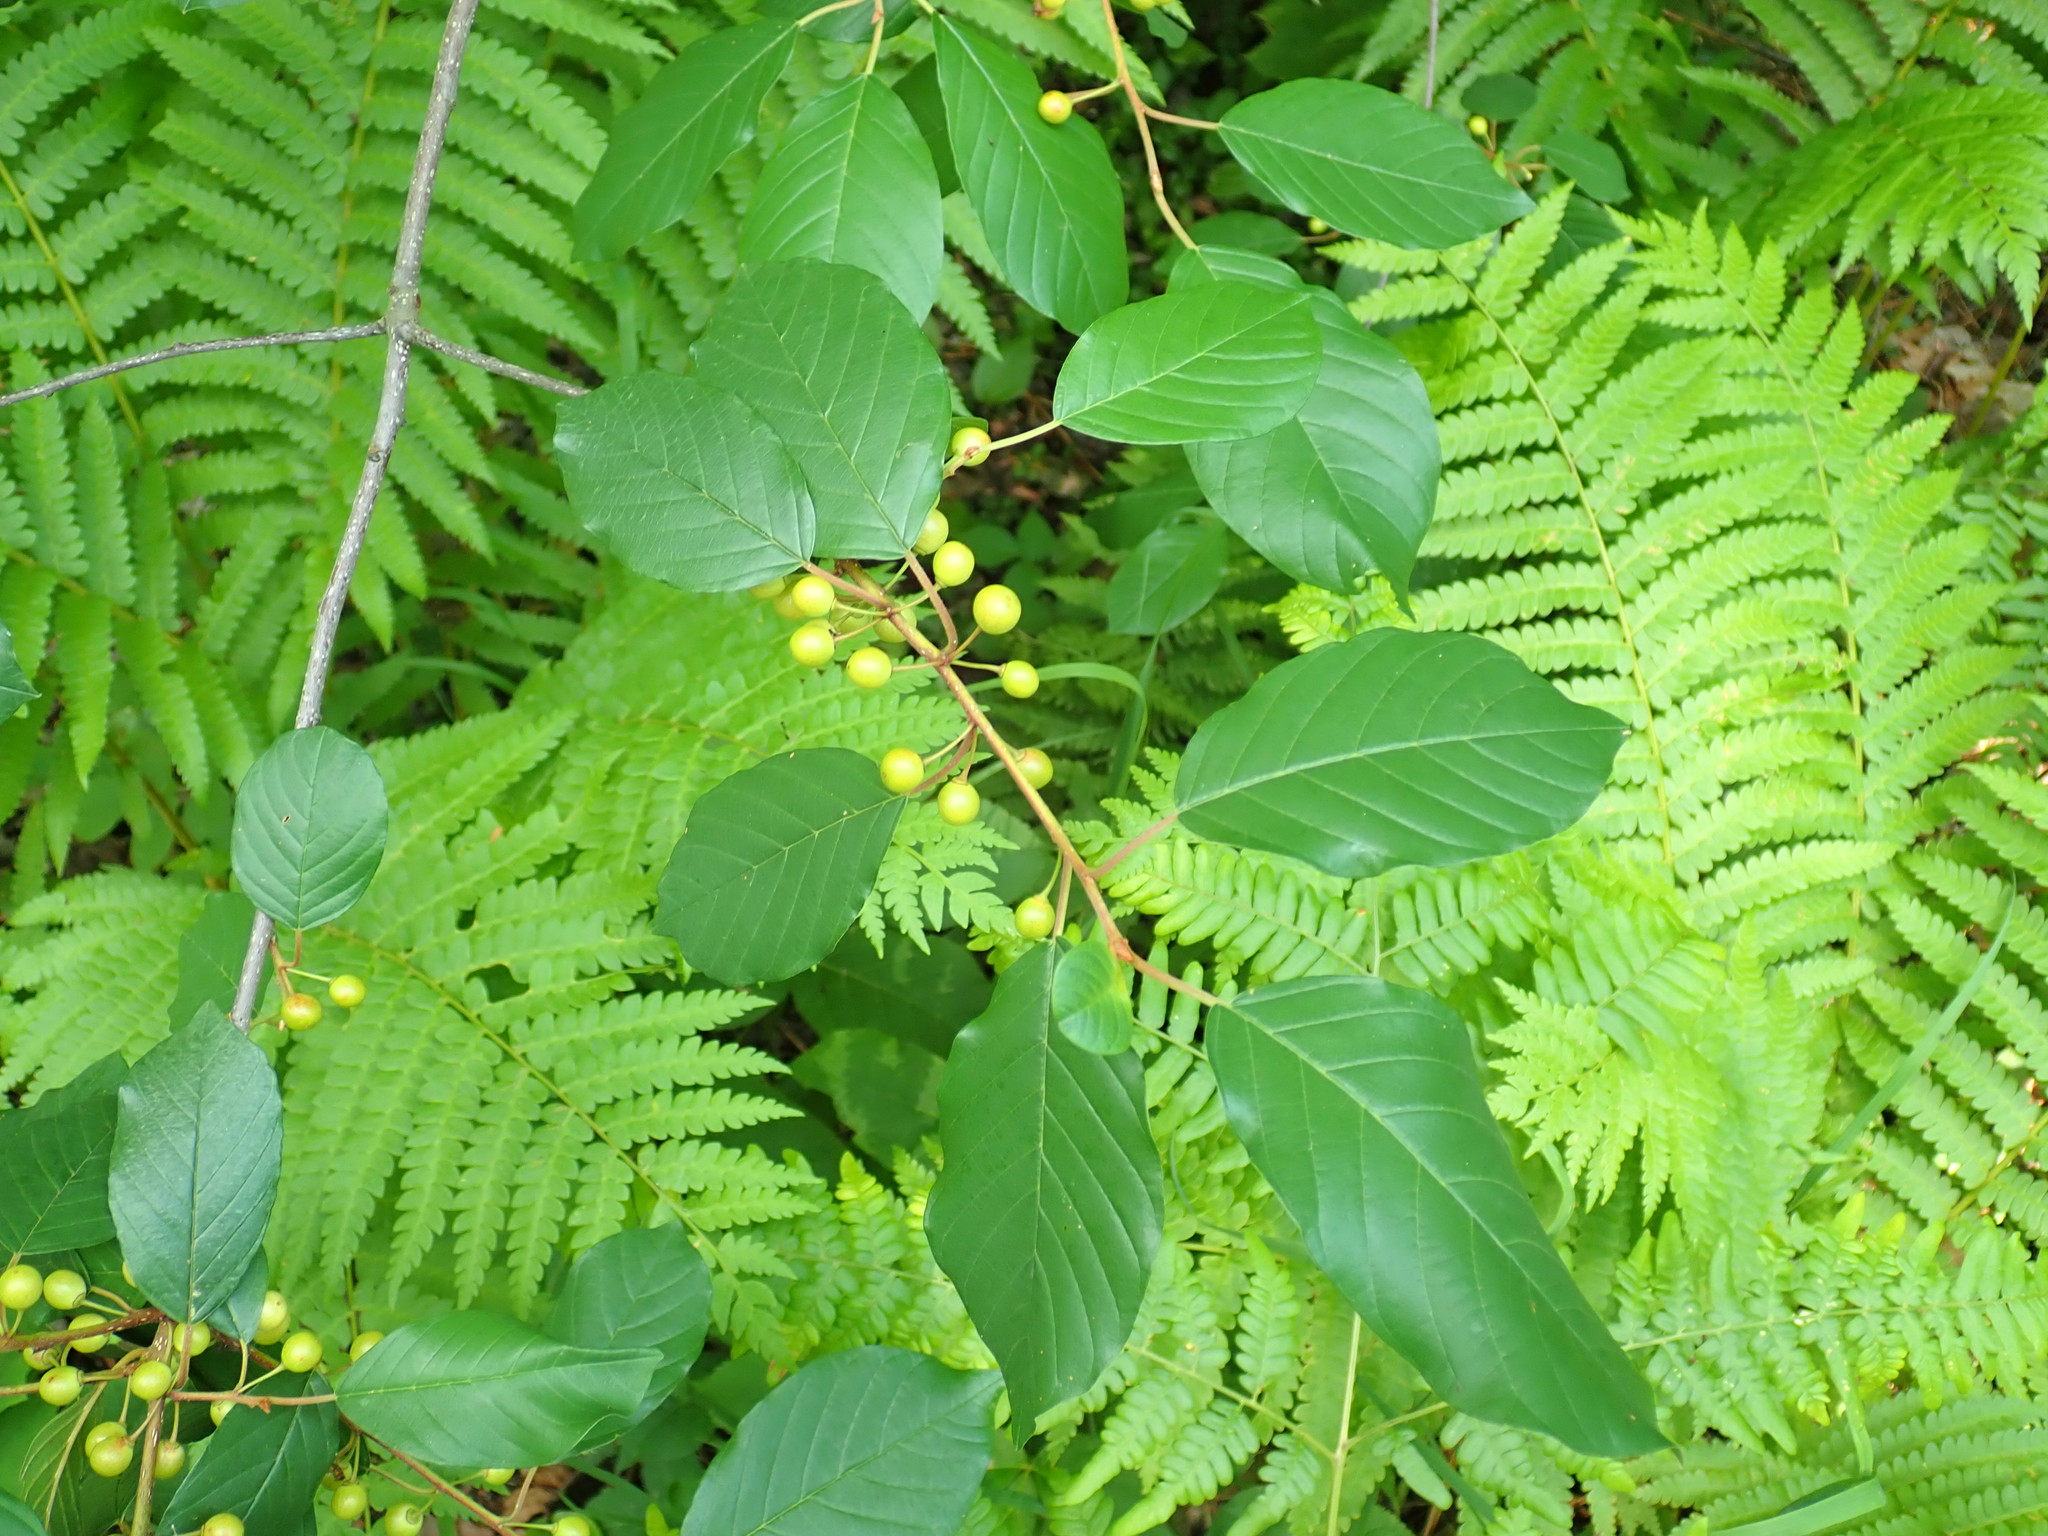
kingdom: Plantae
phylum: Tracheophyta
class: Magnoliopsida
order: Rosales
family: Rhamnaceae
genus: Frangula
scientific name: Frangula alnus
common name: Alder buckthorn
